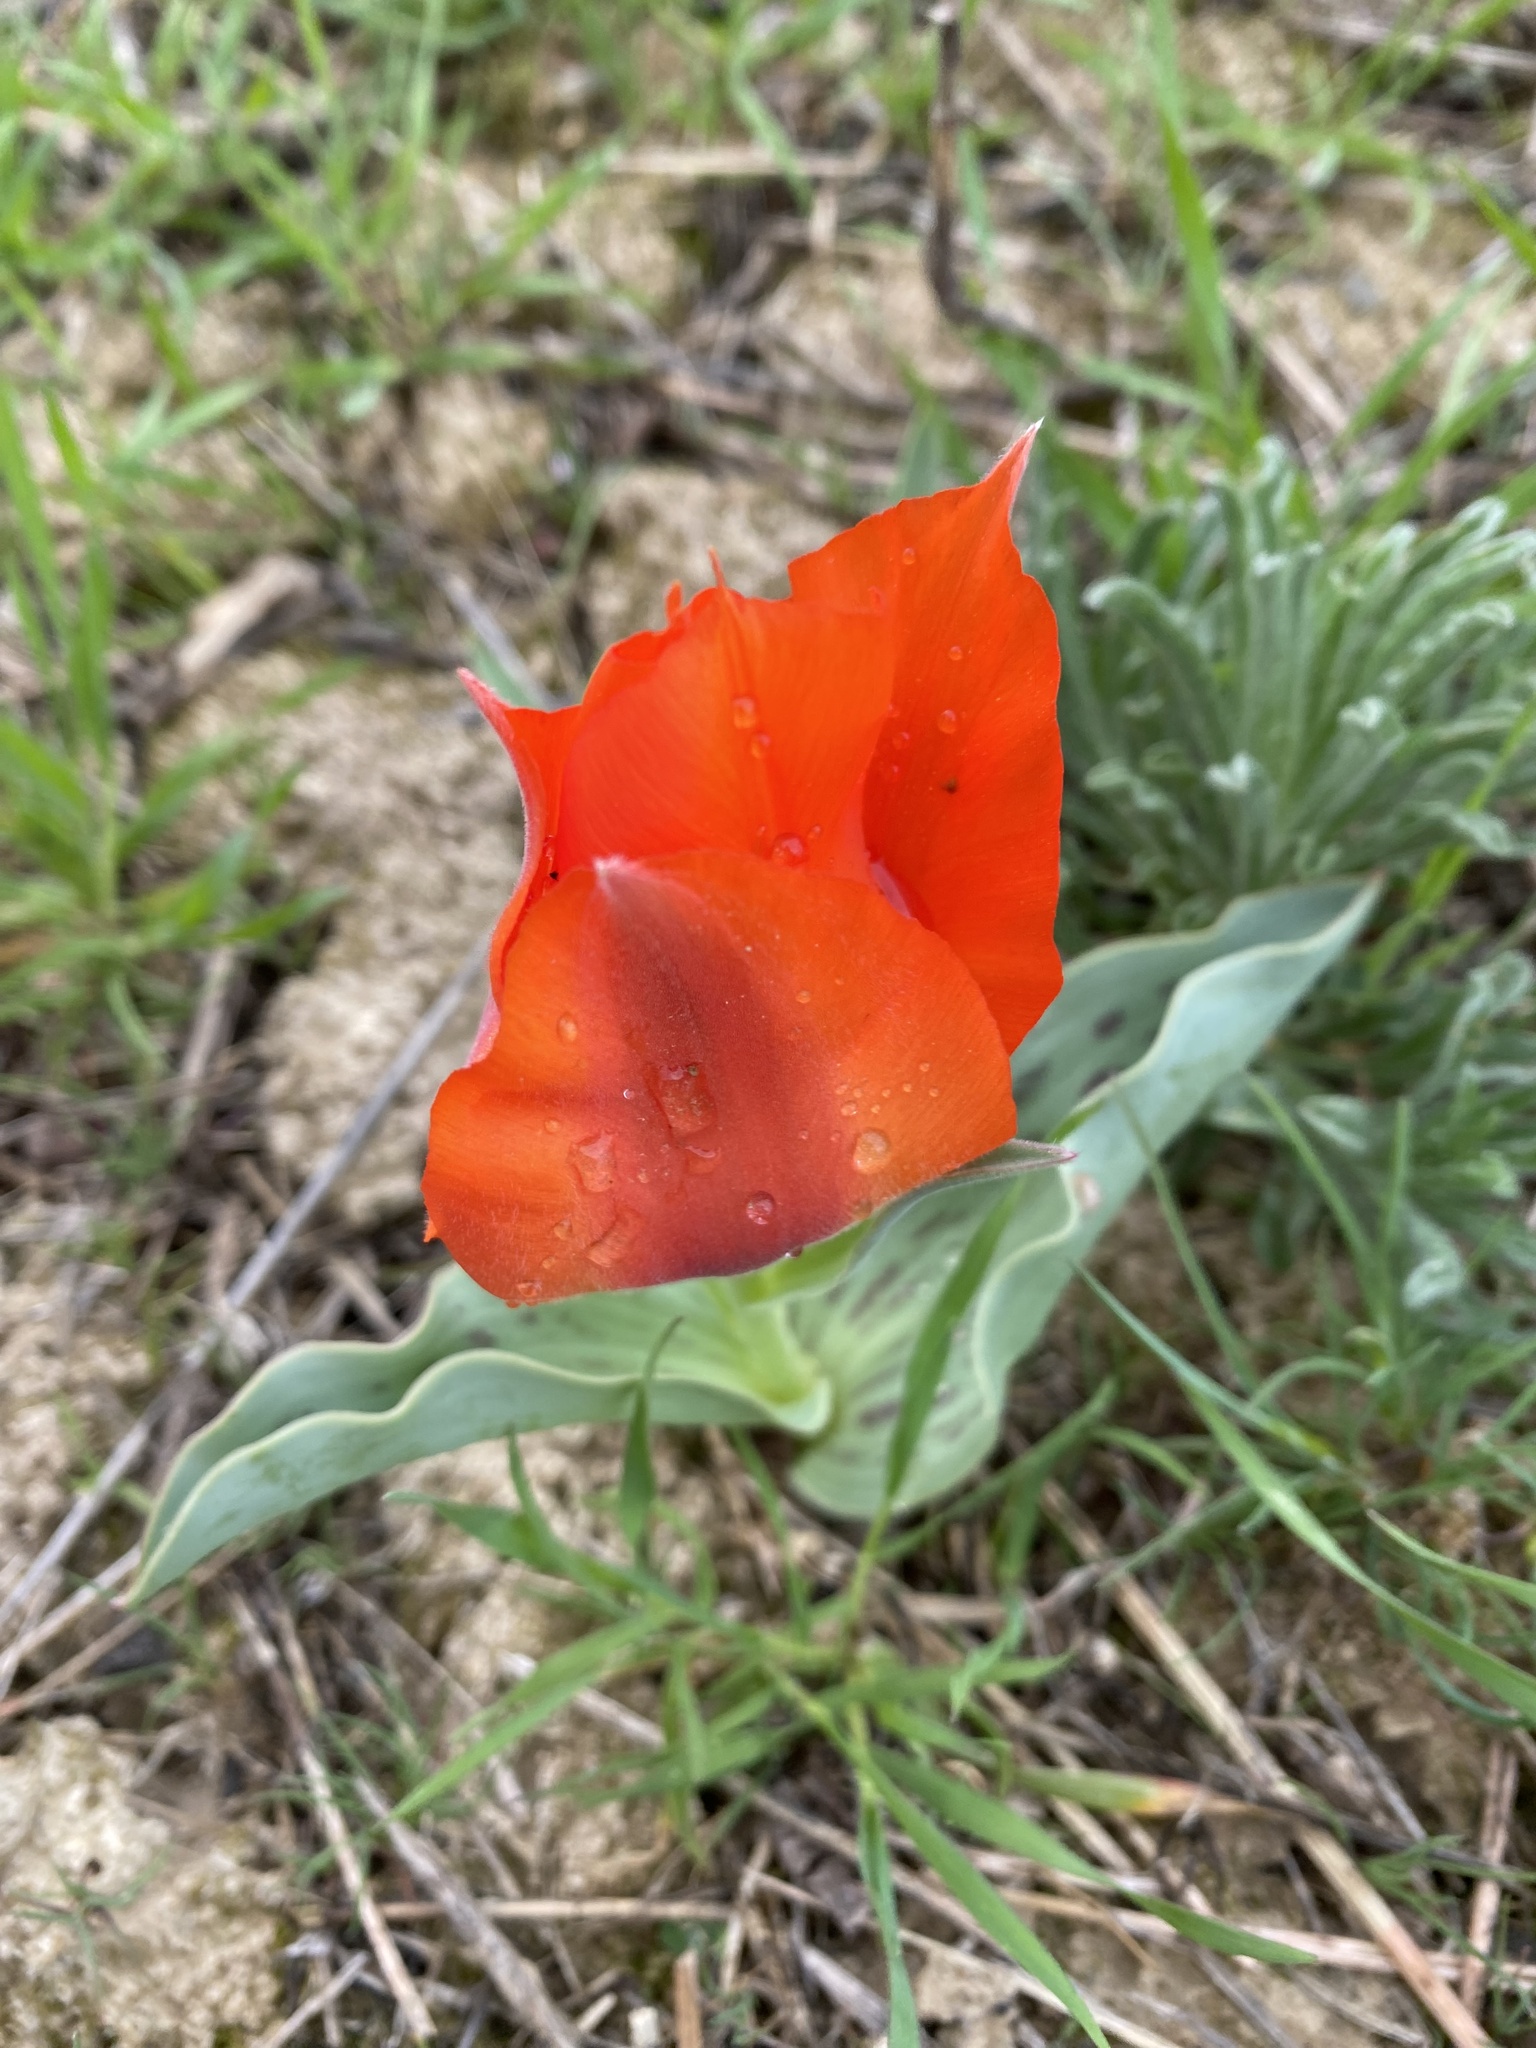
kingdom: Plantae
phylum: Tracheophyta
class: Liliopsida
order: Liliales
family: Liliaceae
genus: Tulipa
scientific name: Tulipa greigii
